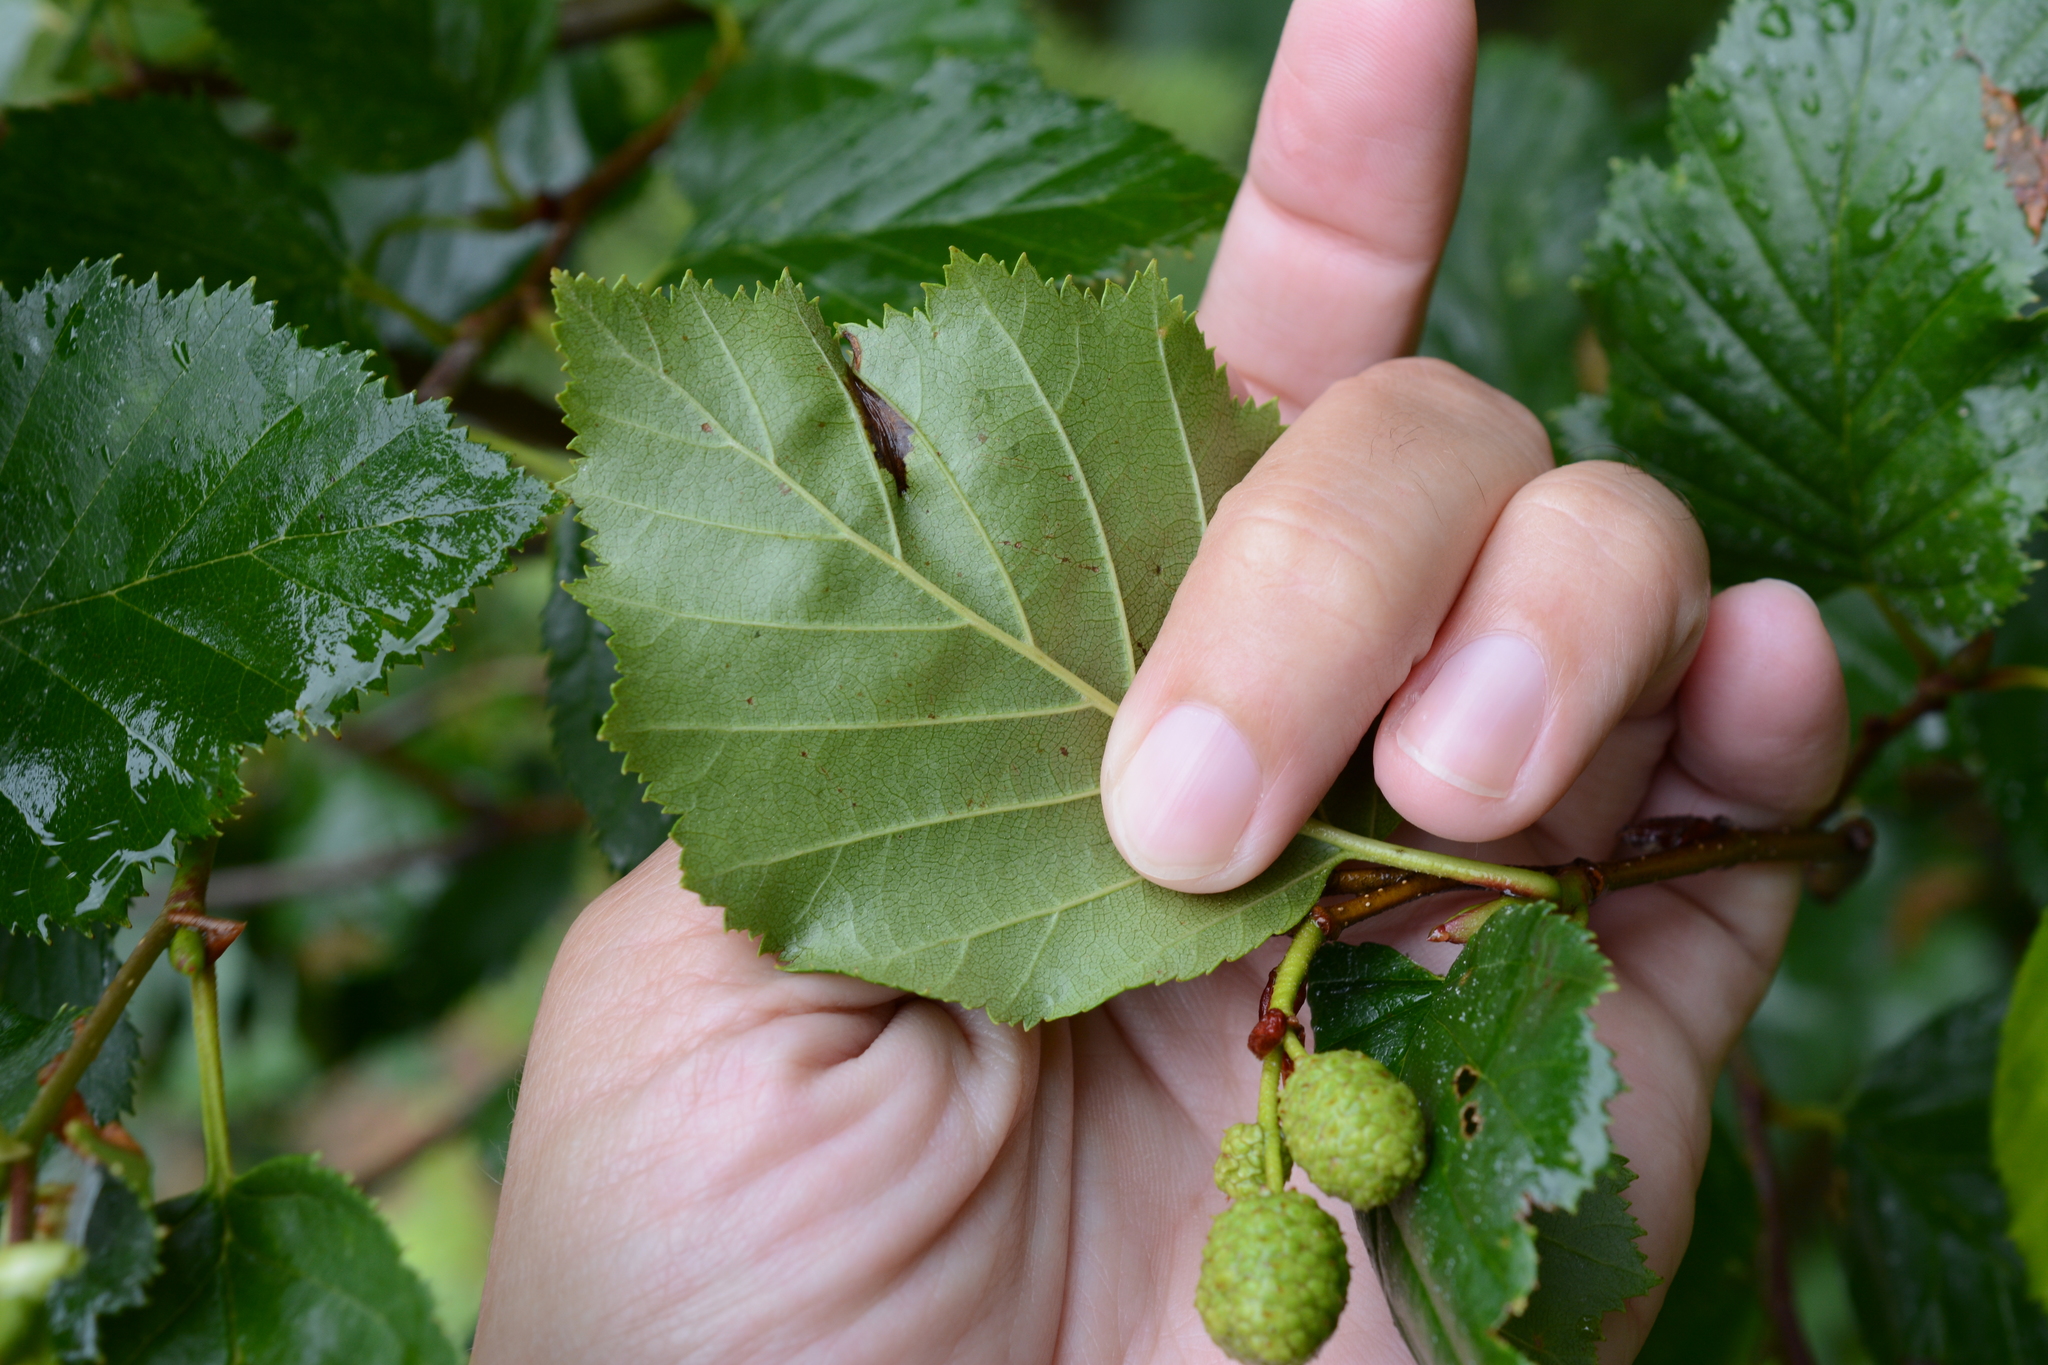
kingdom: Plantae
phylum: Tracheophyta
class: Magnoliopsida
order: Fagales
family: Betulaceae
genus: Alnus
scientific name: Alnus alnobetula
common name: Green alder
